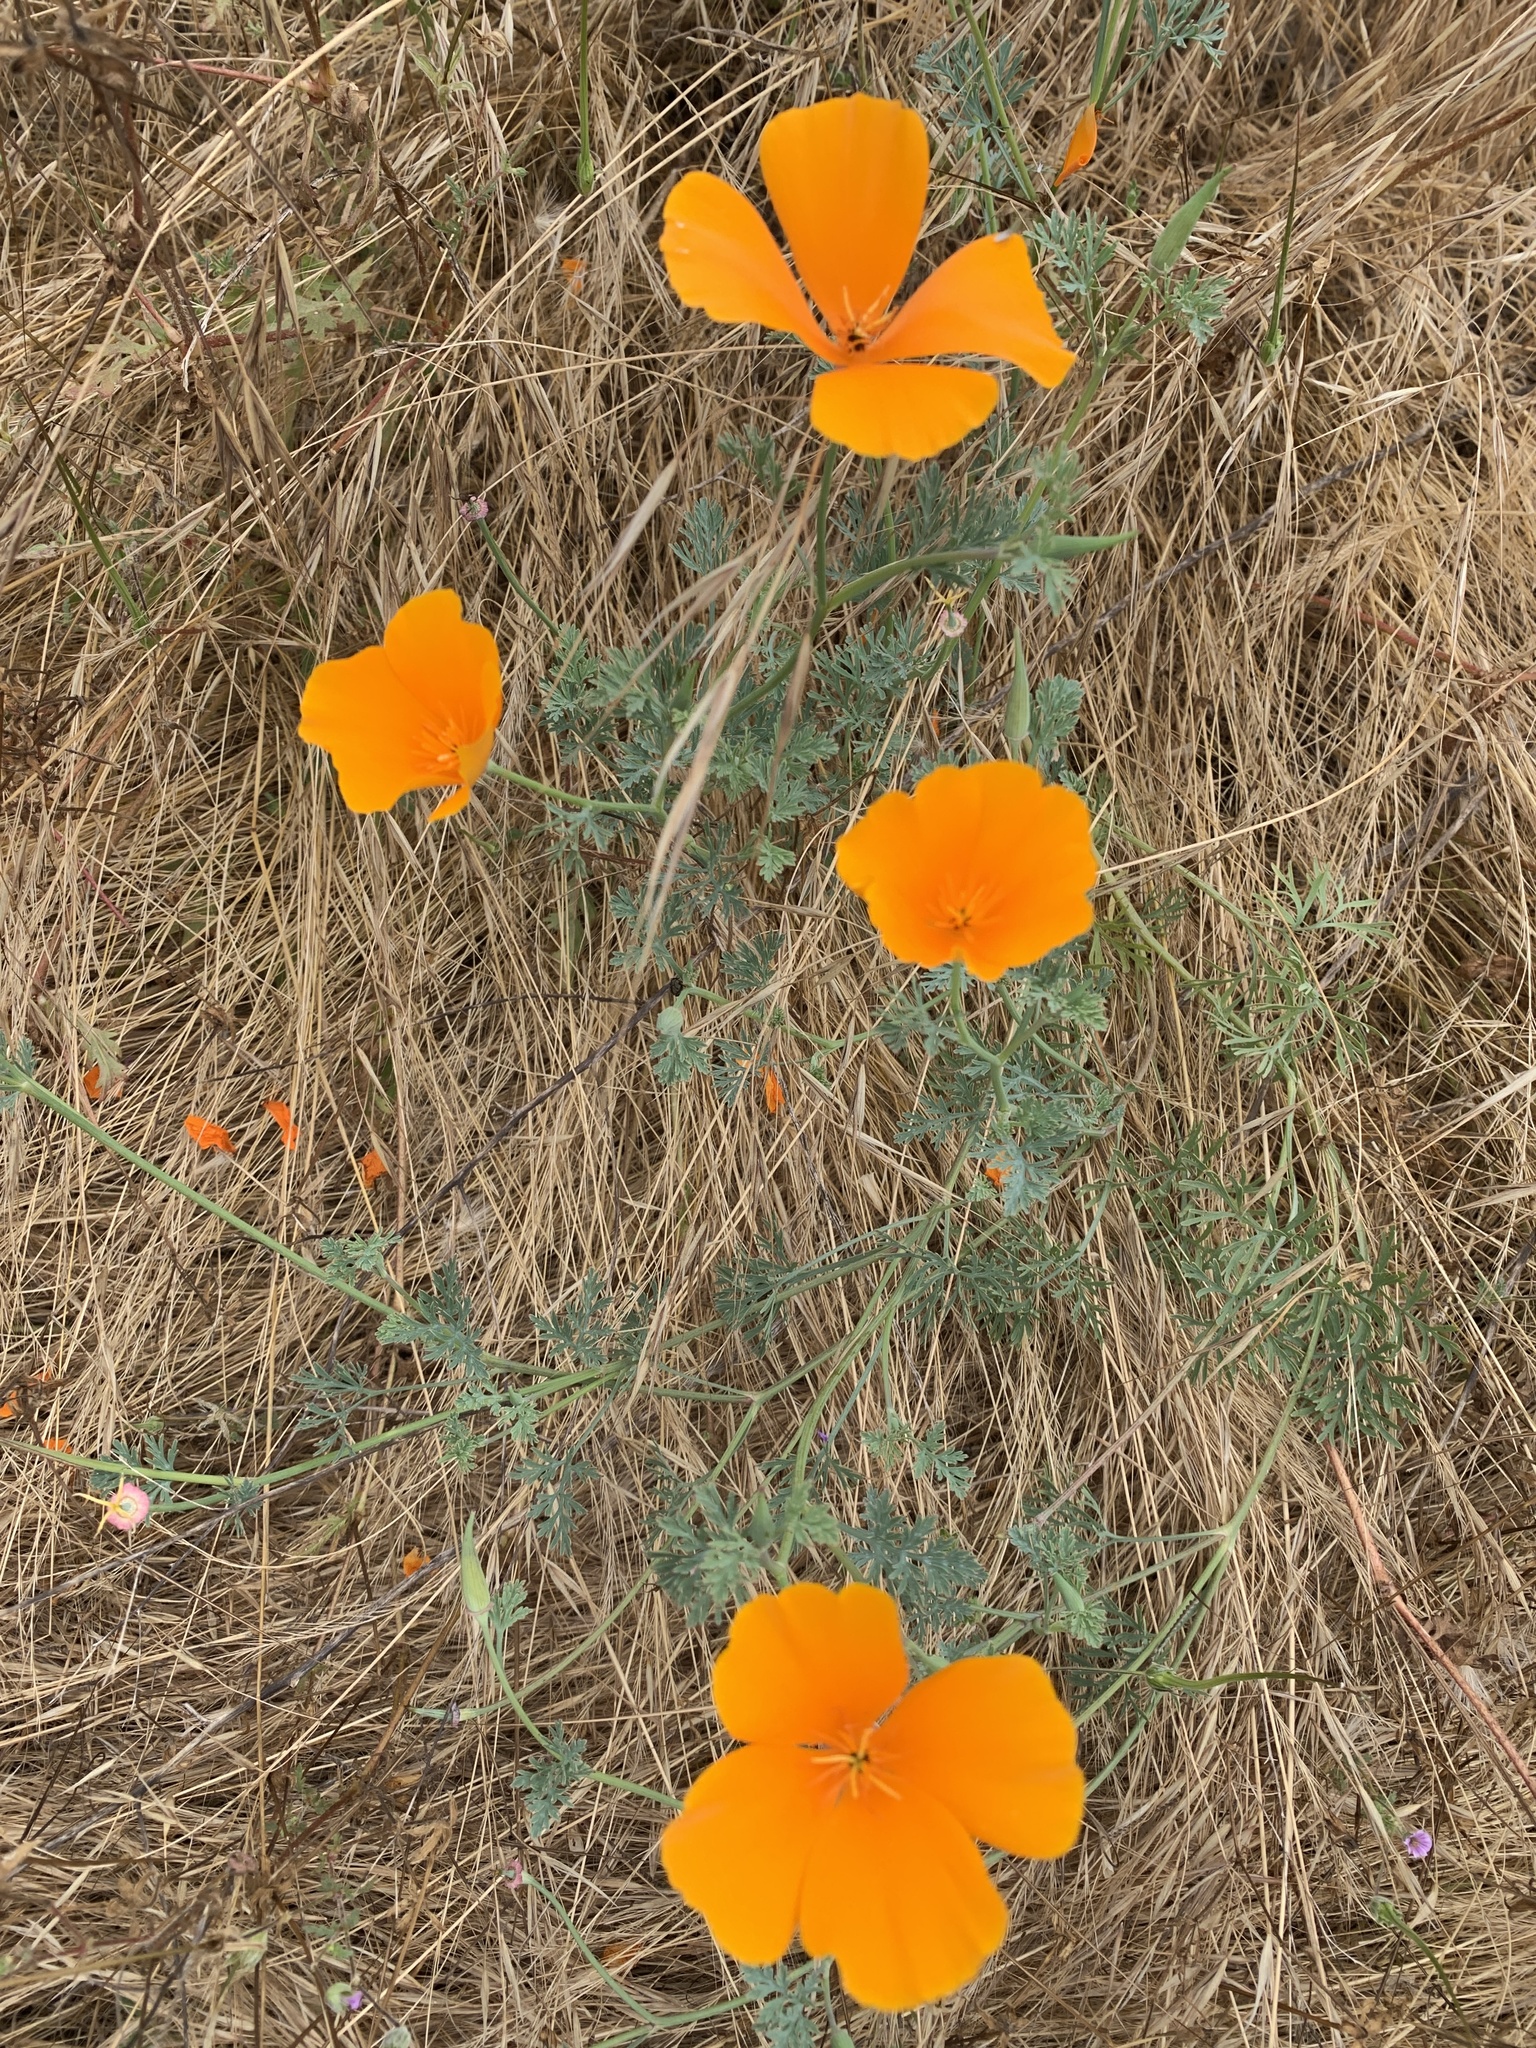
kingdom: Plantae
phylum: Tracheophyta
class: Magnoliopsida
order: Ranunculales
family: Papaveraceae
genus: Eschscholzia
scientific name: Eschscholzia californica
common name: California poppy
